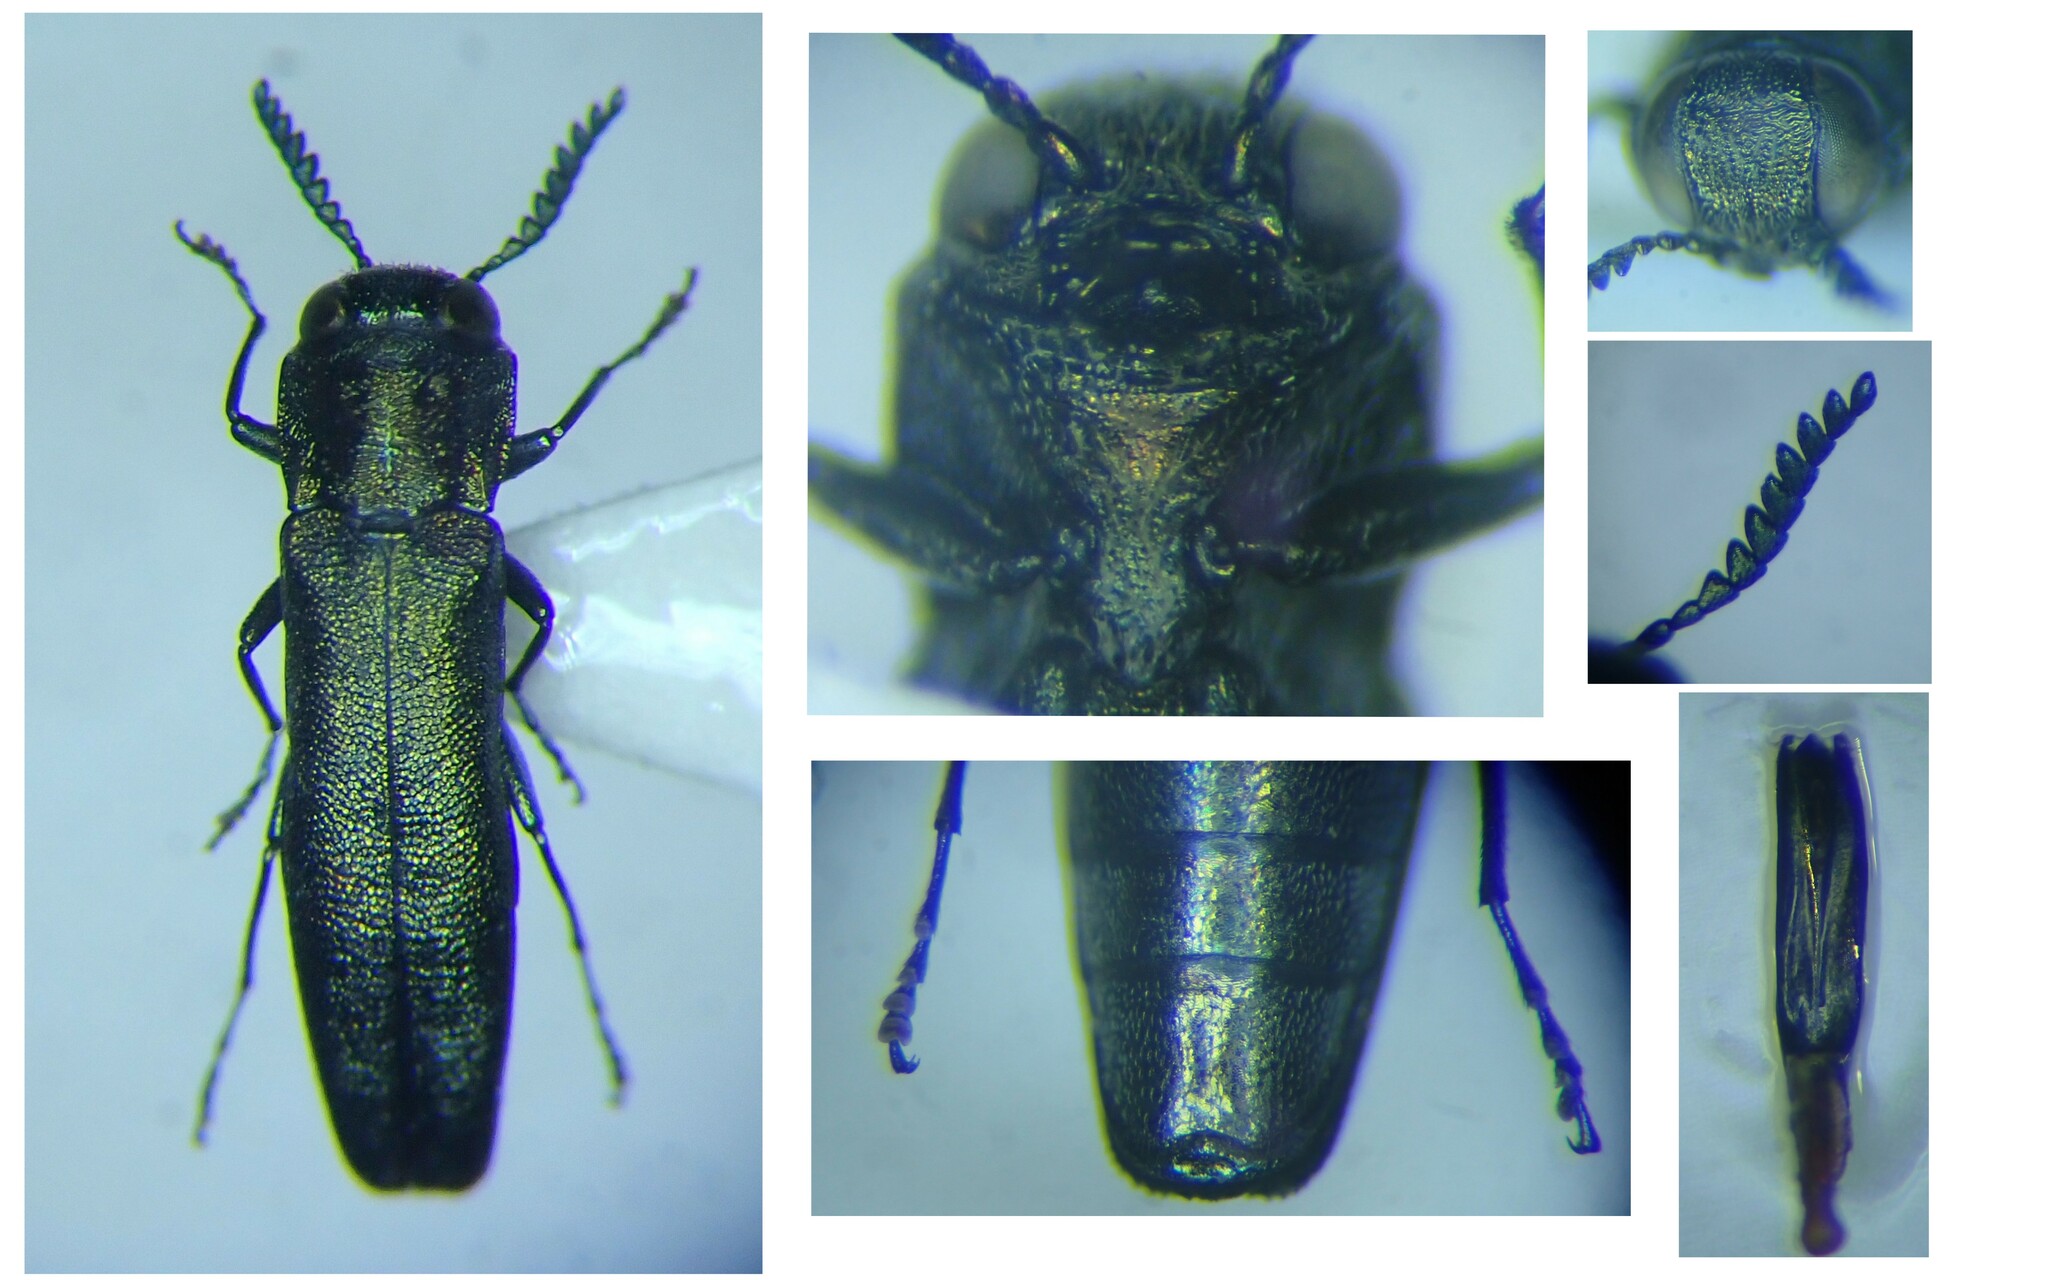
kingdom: Animalia
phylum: Arthropoda
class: Insecta
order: Coleoptera
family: Buprestidae
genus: Agrilus
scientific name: Agrilus laticornis
